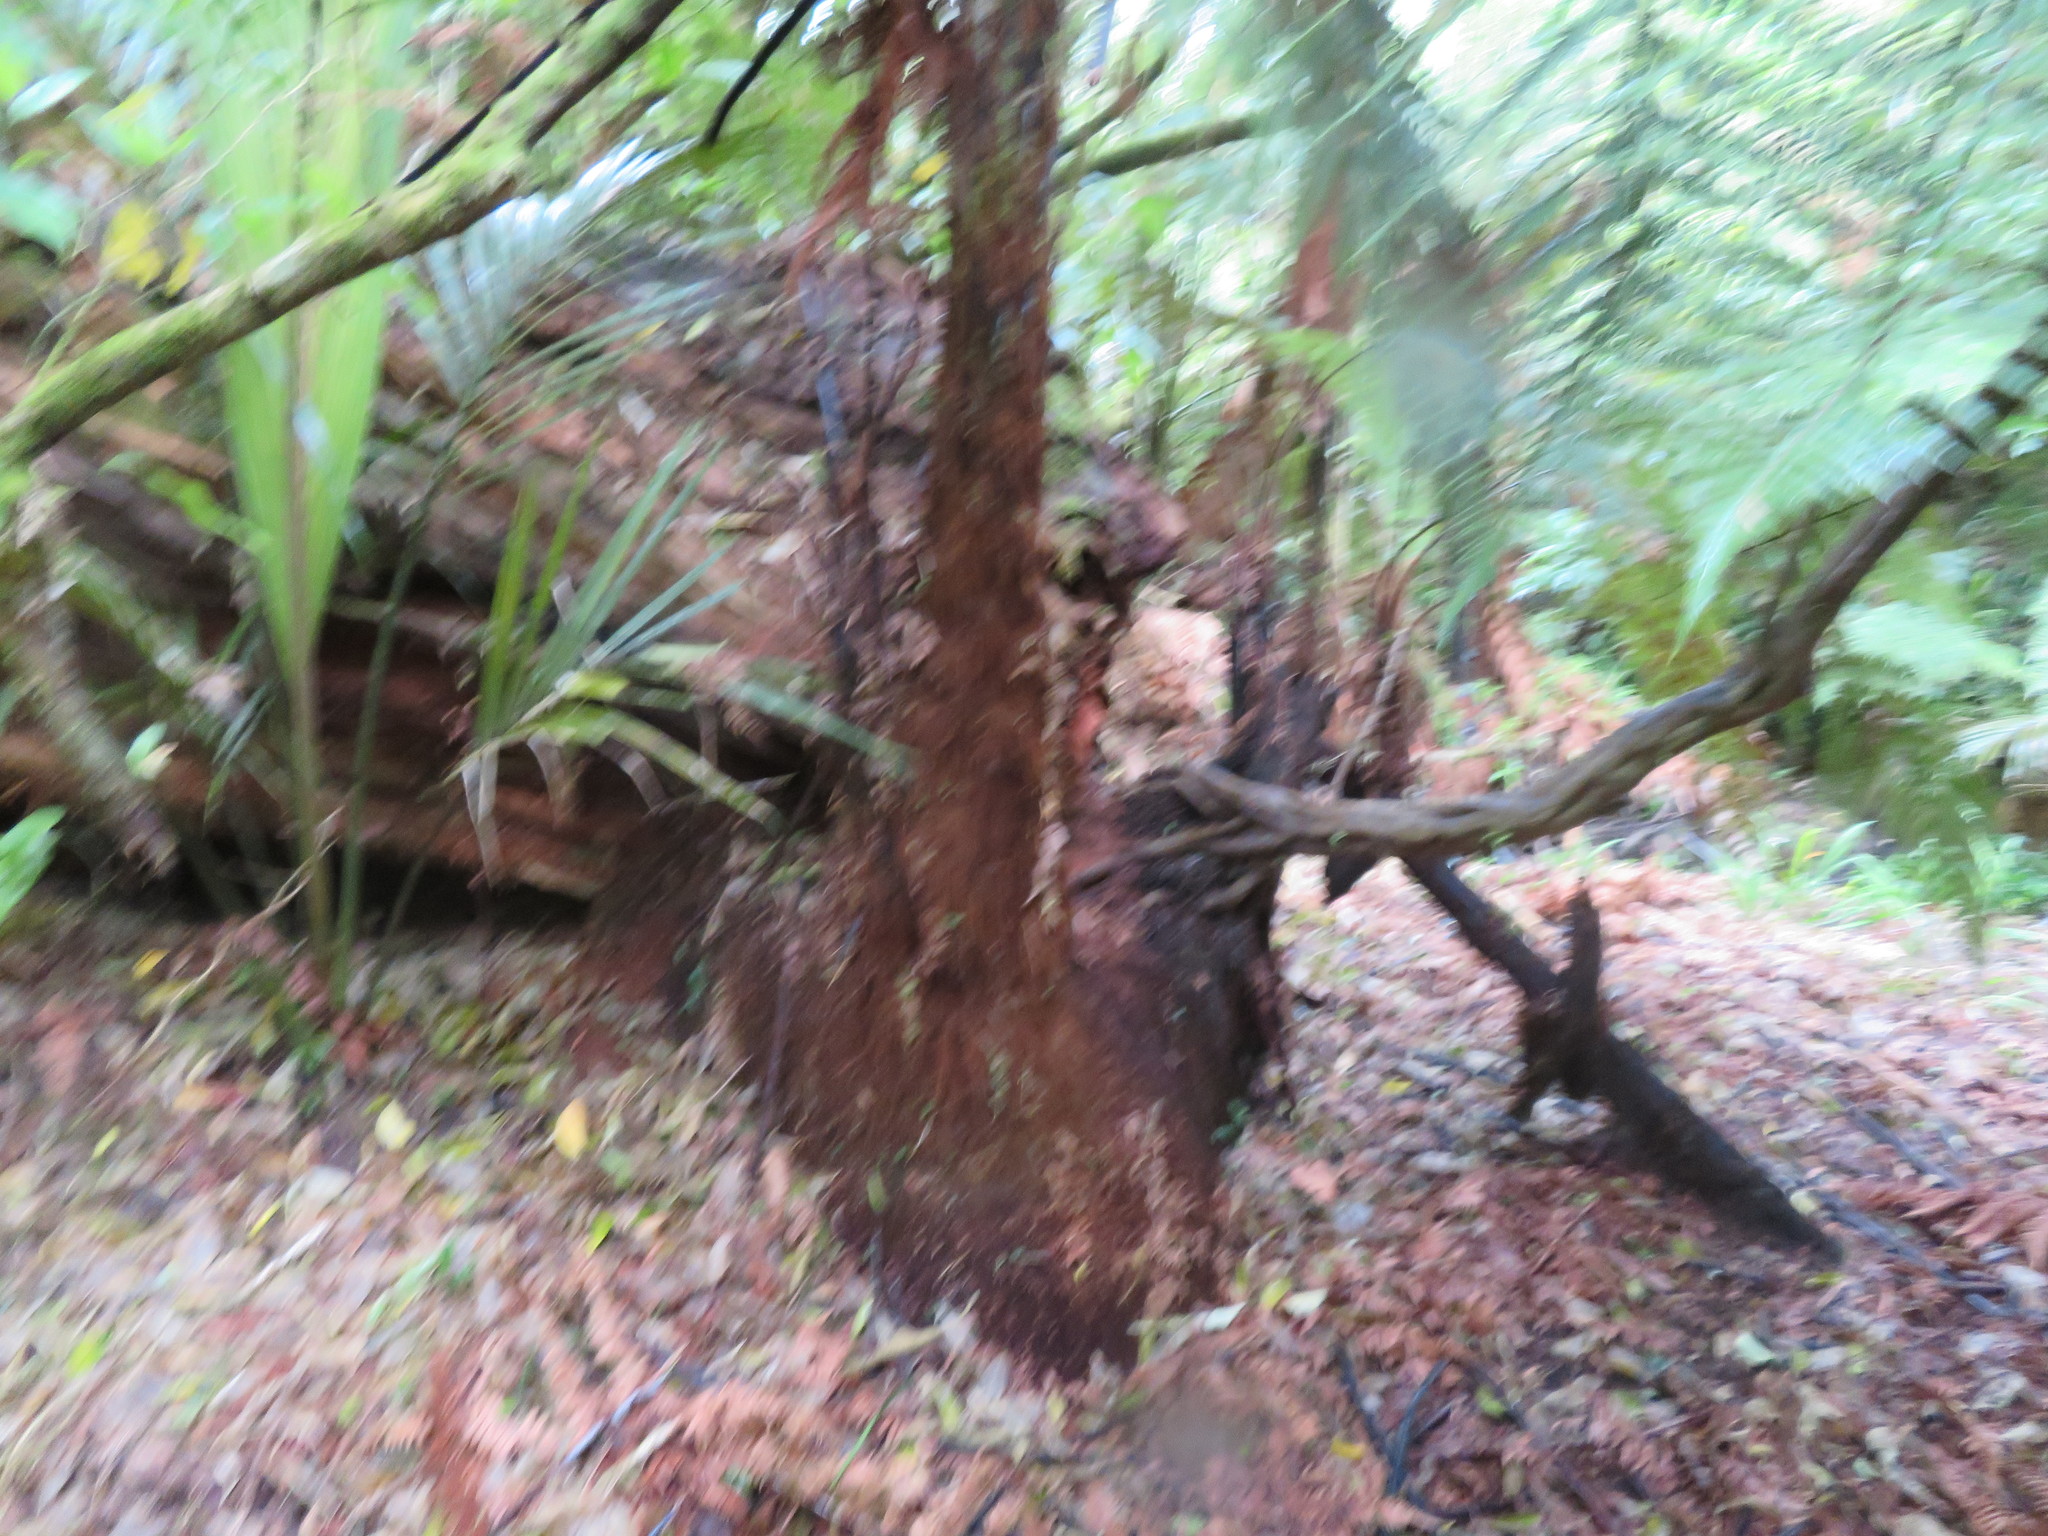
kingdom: Plantae
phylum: Tracheophyta
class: Liliopsida
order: Arecales
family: Arecaceae
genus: Rhopalostylis
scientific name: Rhopalostylis sapida
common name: Feather-duster palm
